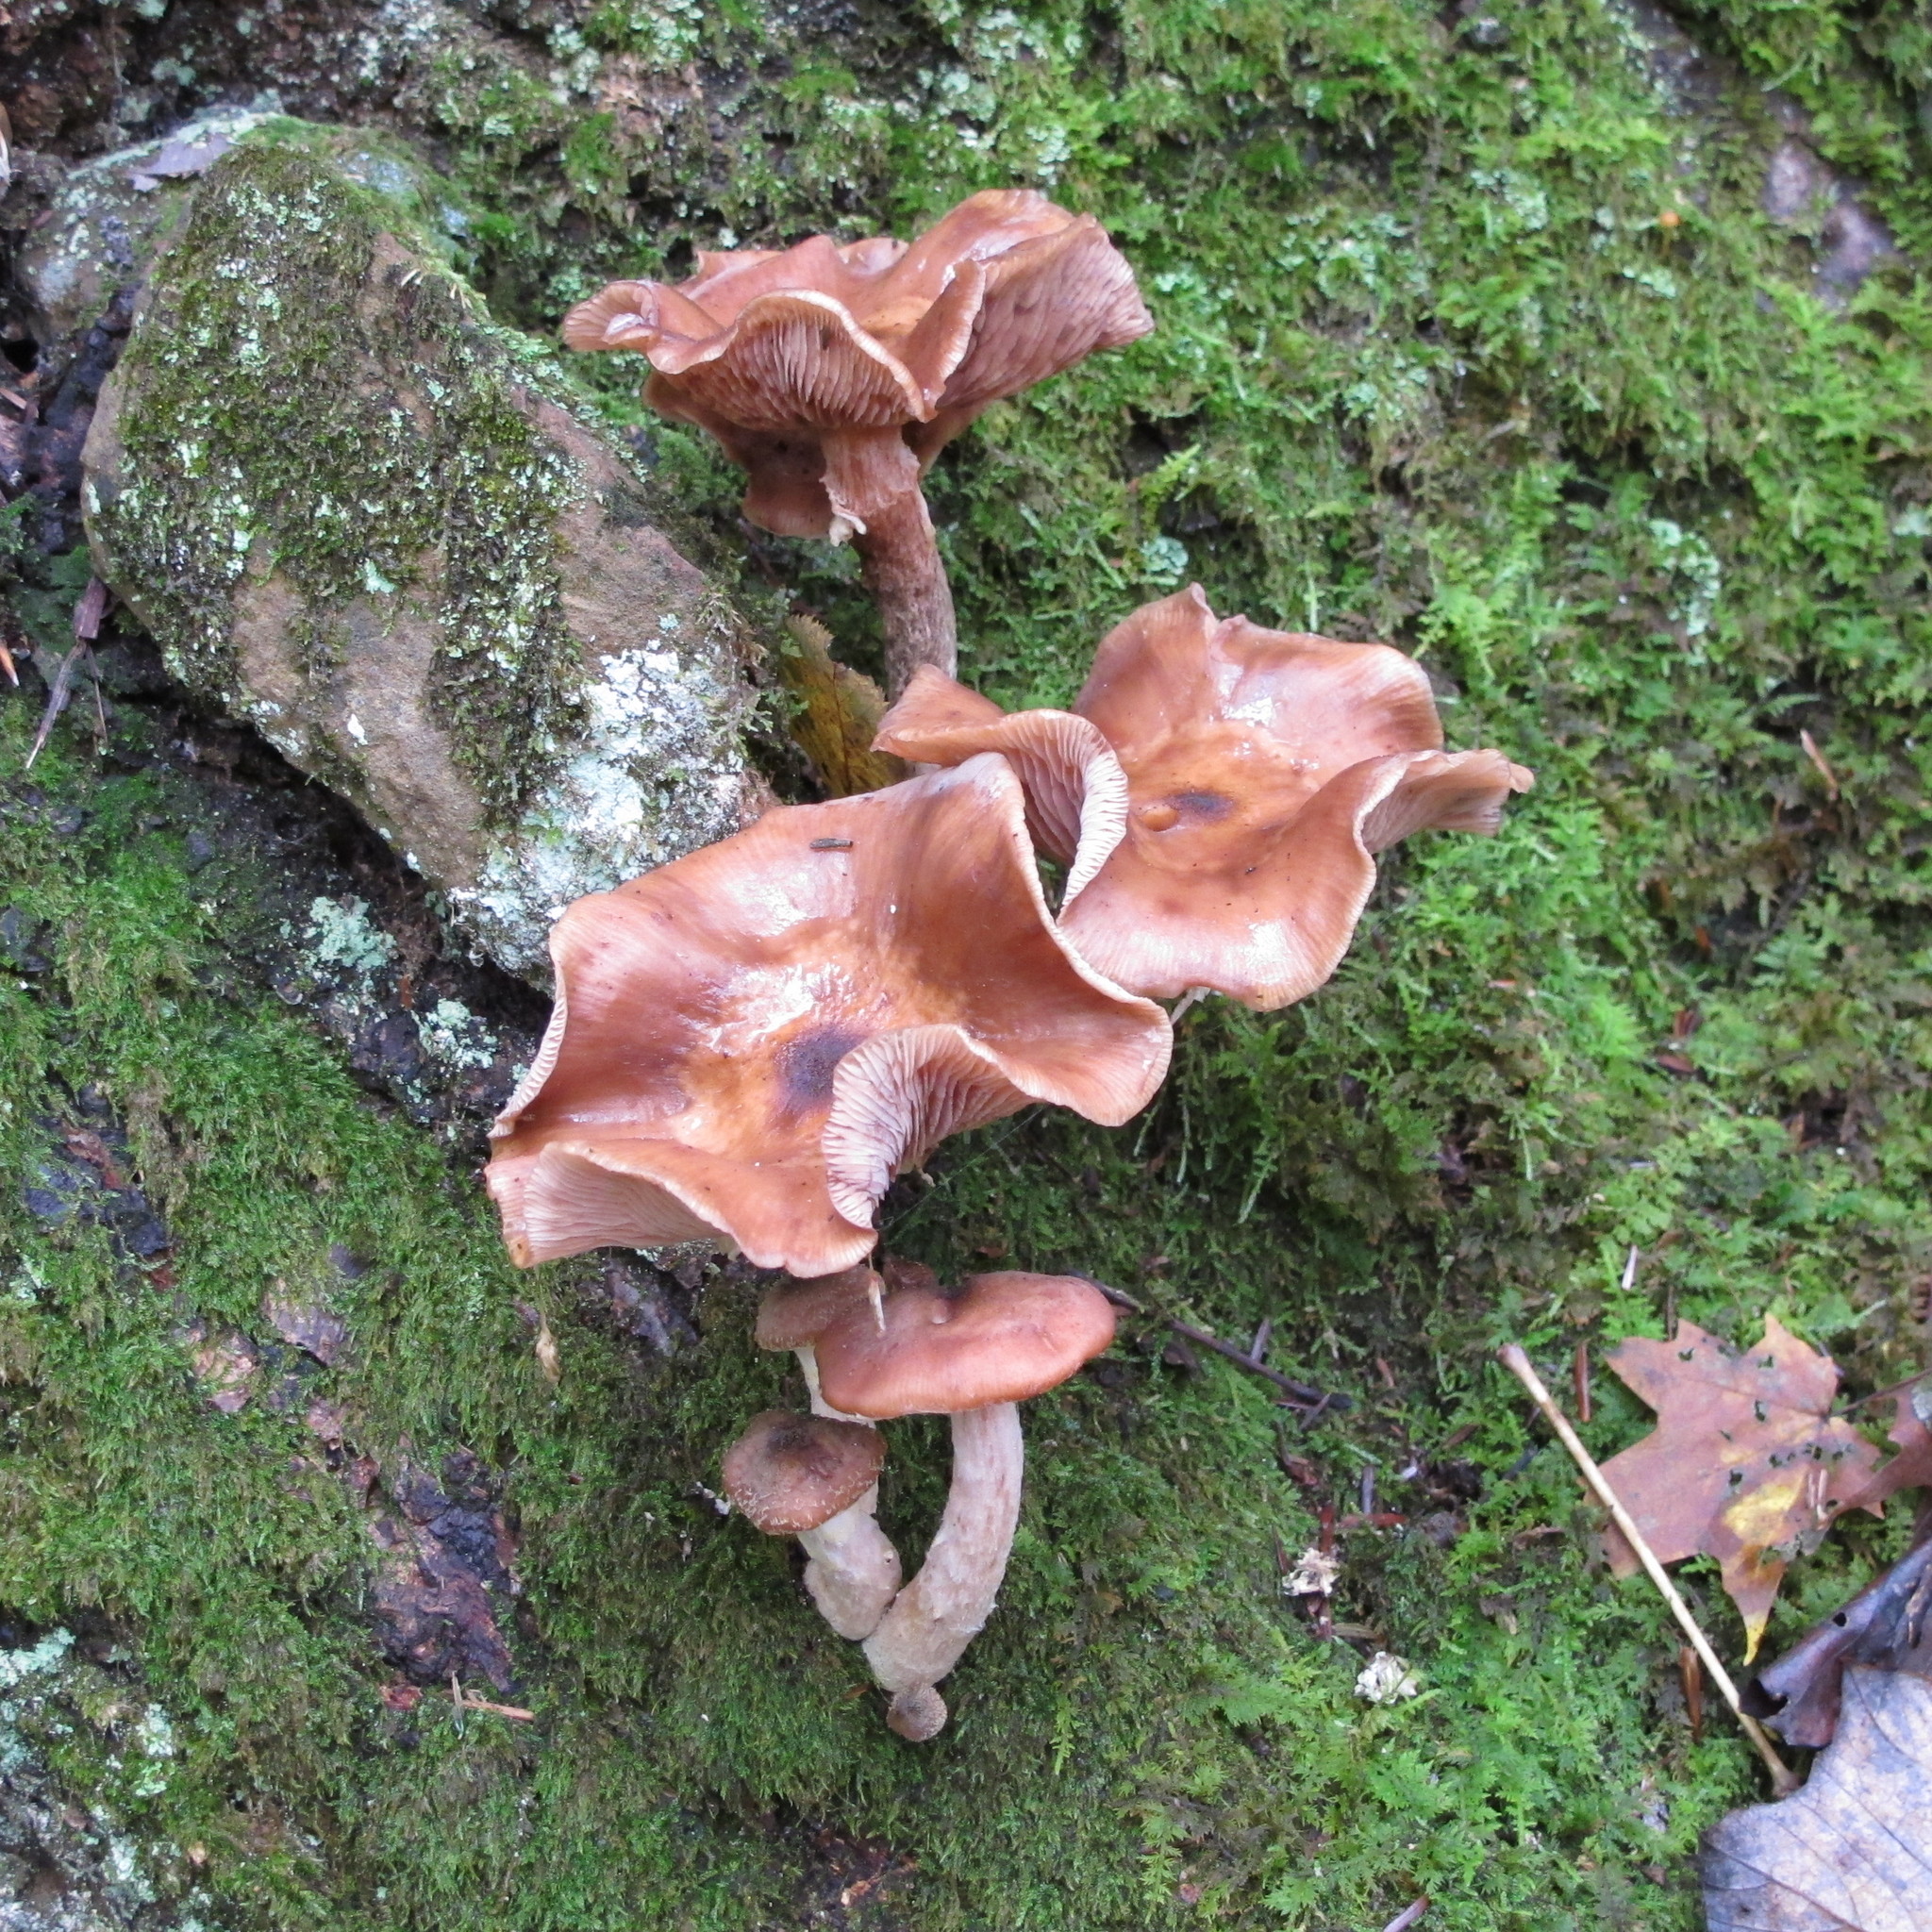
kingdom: Fungi
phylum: Basidiomycota
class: Agaricomycetes
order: Agaricales
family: Physalacriaceae
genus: Armillaria
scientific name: Armillaria gallica
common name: Bulbous honey fungus
